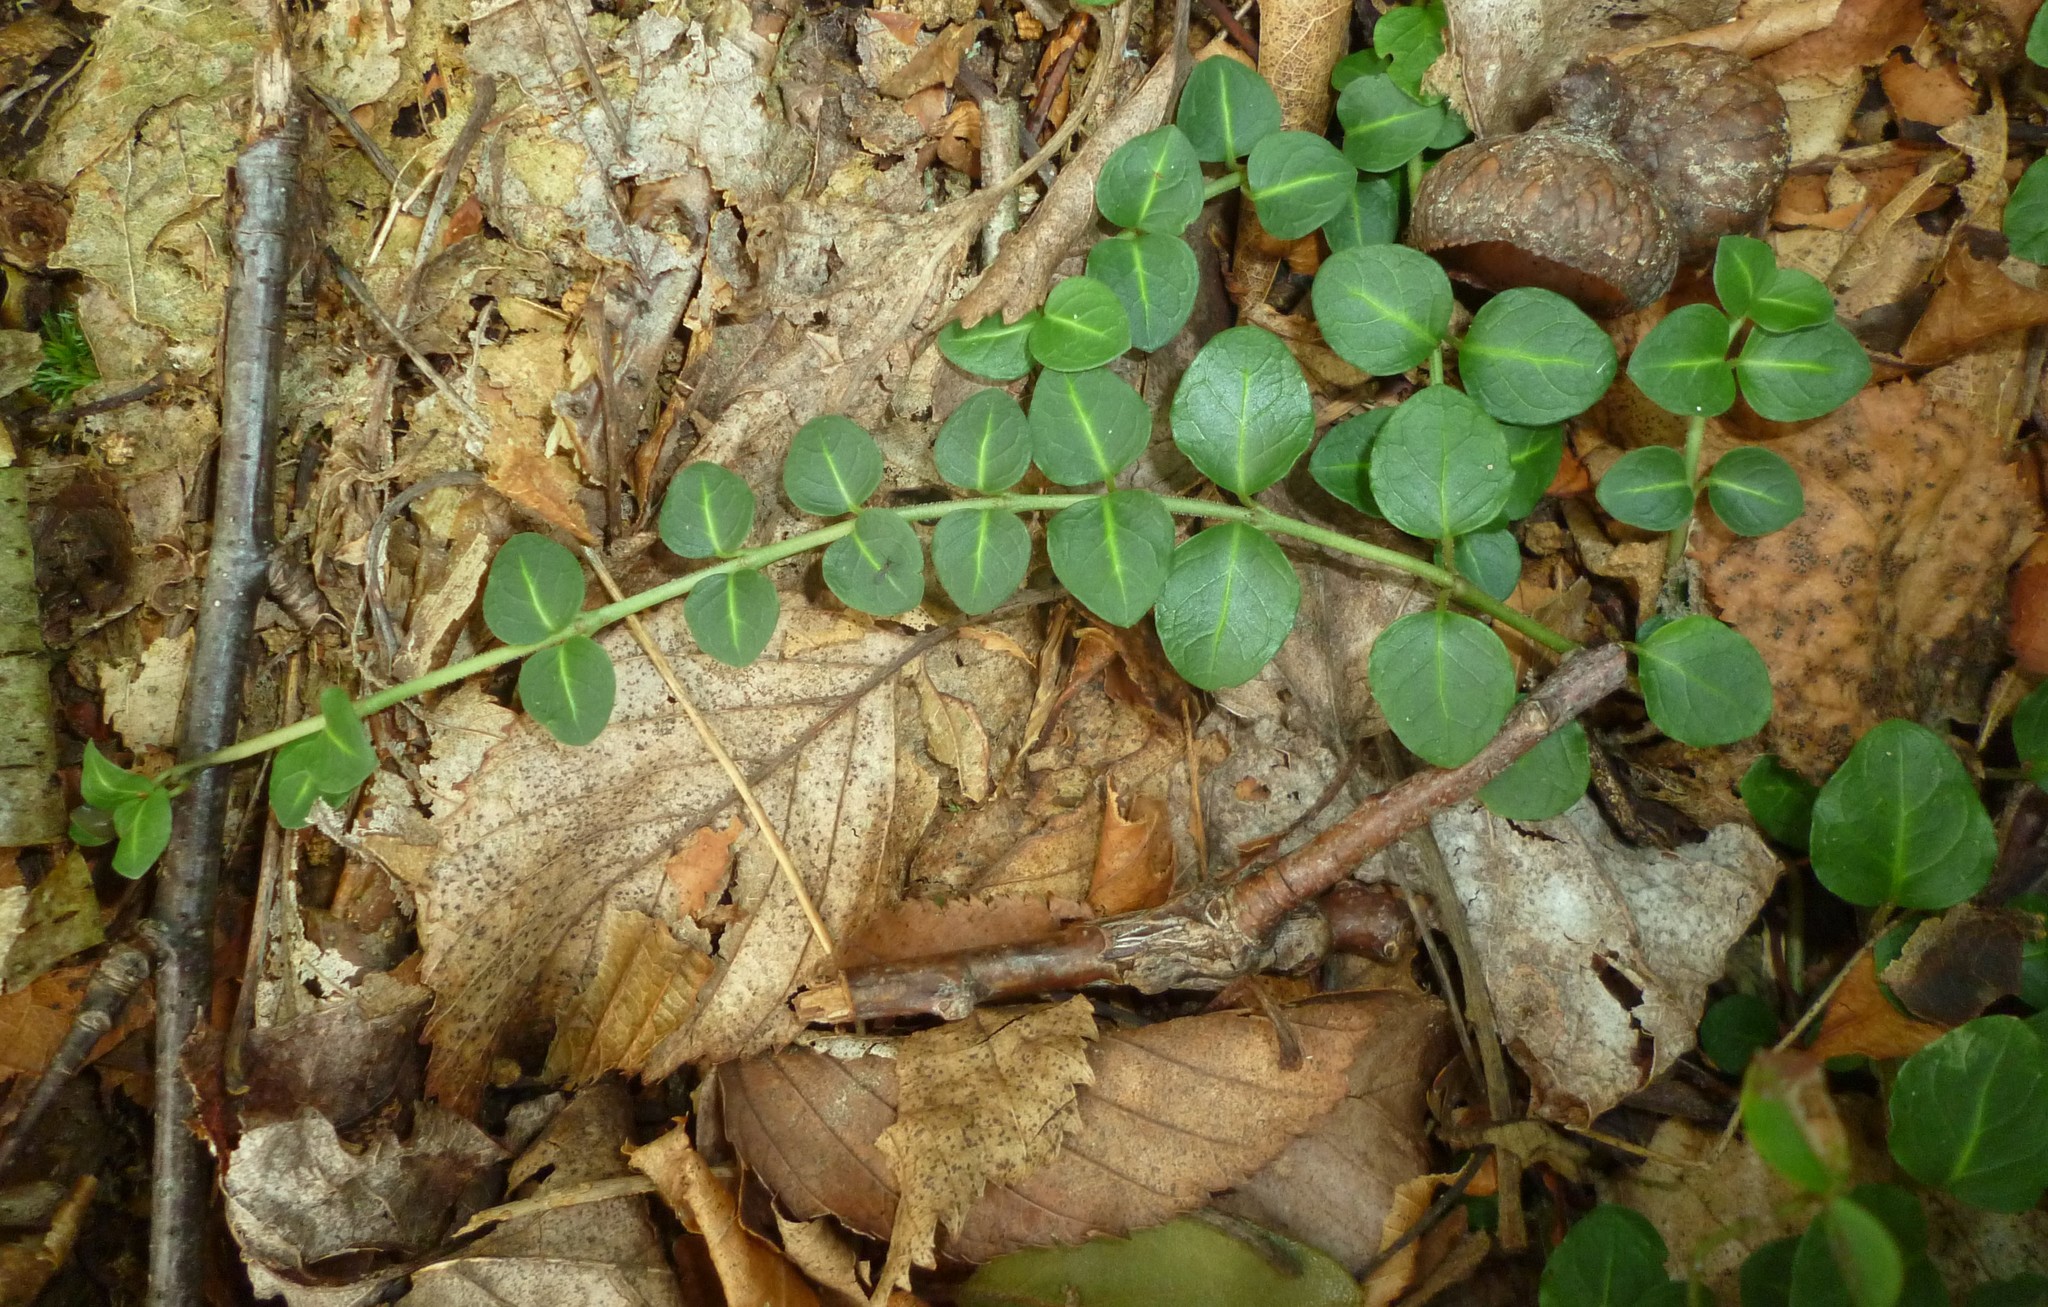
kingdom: Plantae
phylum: Tracheophyta
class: Magnoliopsida
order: Gentianales
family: Rubiaceae
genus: Mitchella
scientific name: Mitchella repens
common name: Partridge-berry
